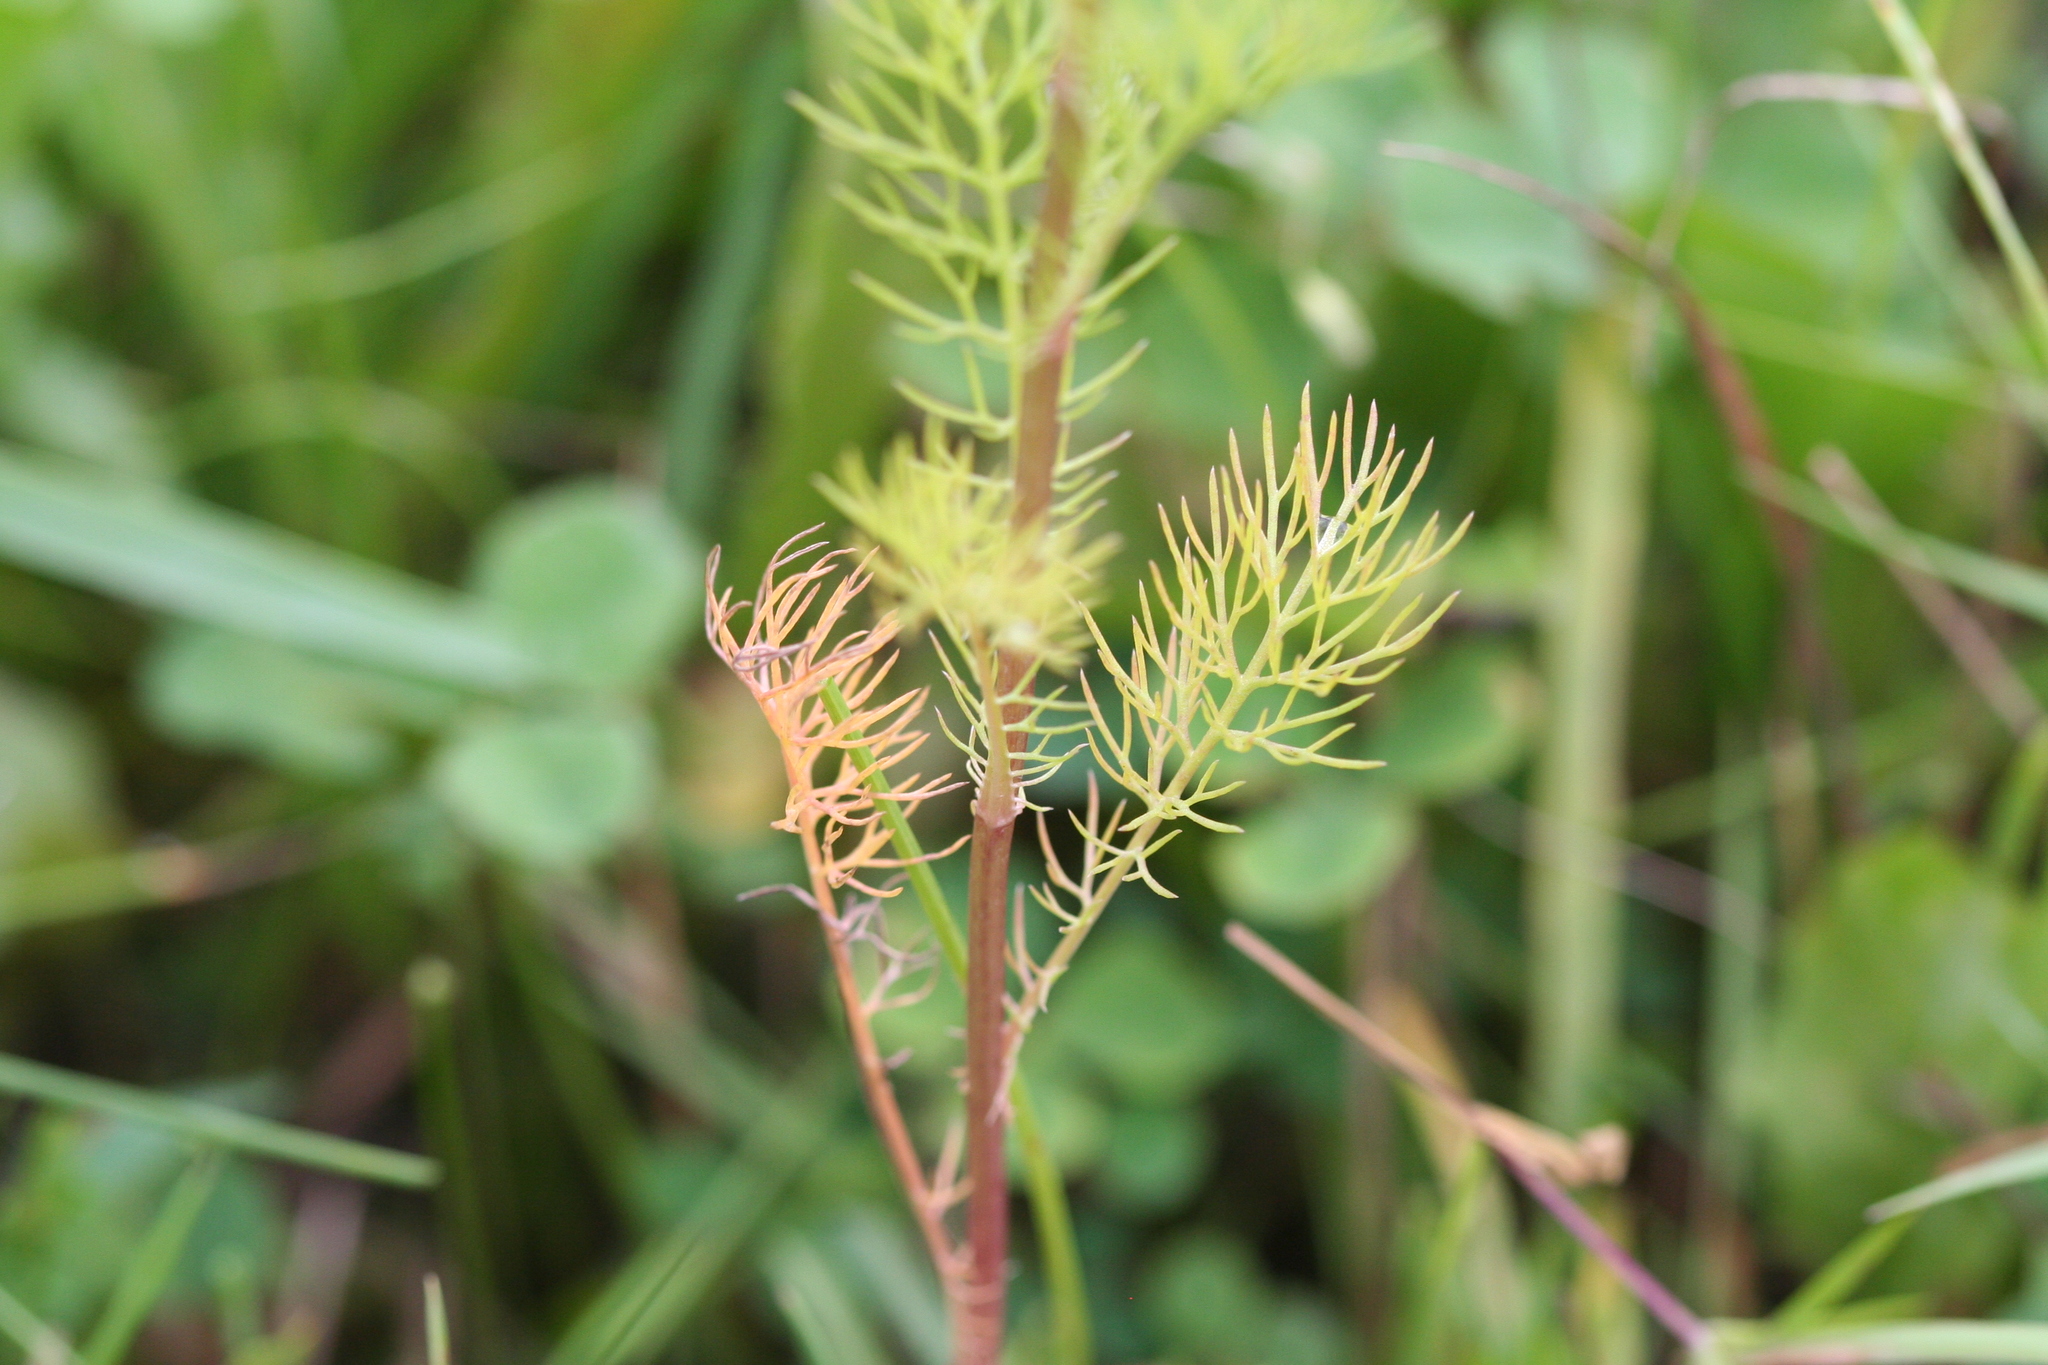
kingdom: Plantae
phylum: Tracheophyta
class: Magnoliopsida
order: Asterales
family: Asteraceae
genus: Tripleurospermum
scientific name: Tripleurospermum inodorum
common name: Scentless mayweed
